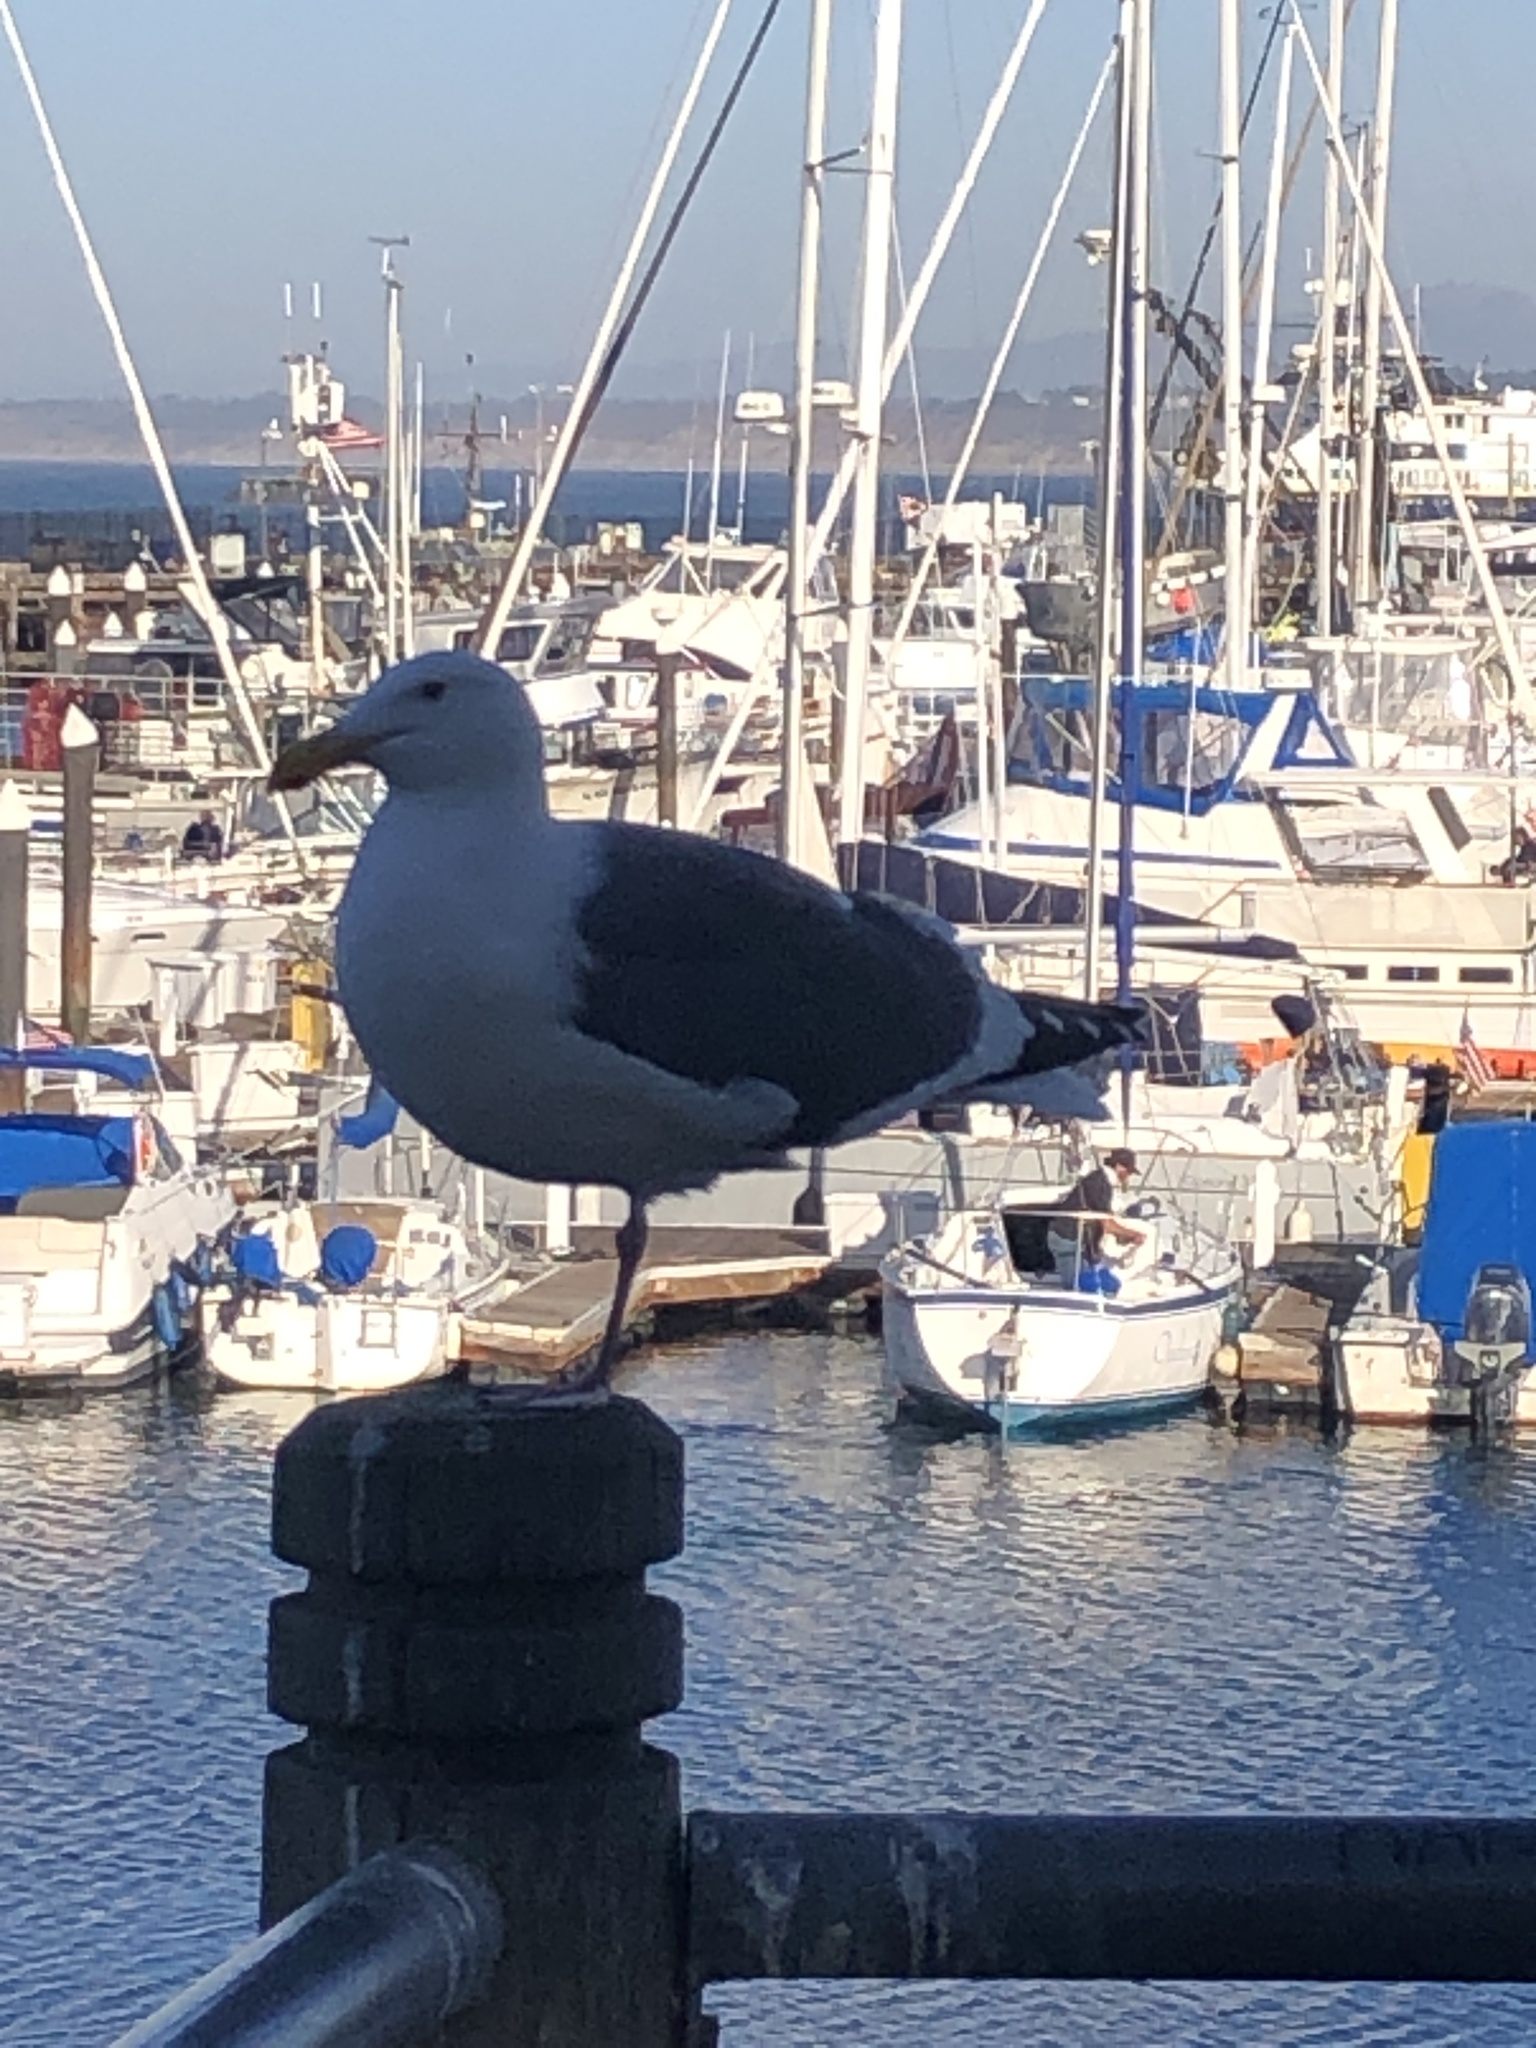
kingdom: Animalia
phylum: Chordata
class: Aves
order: Charadriiformes
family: Laridae
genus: Larus
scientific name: Larus occidentalis
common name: Western gull
